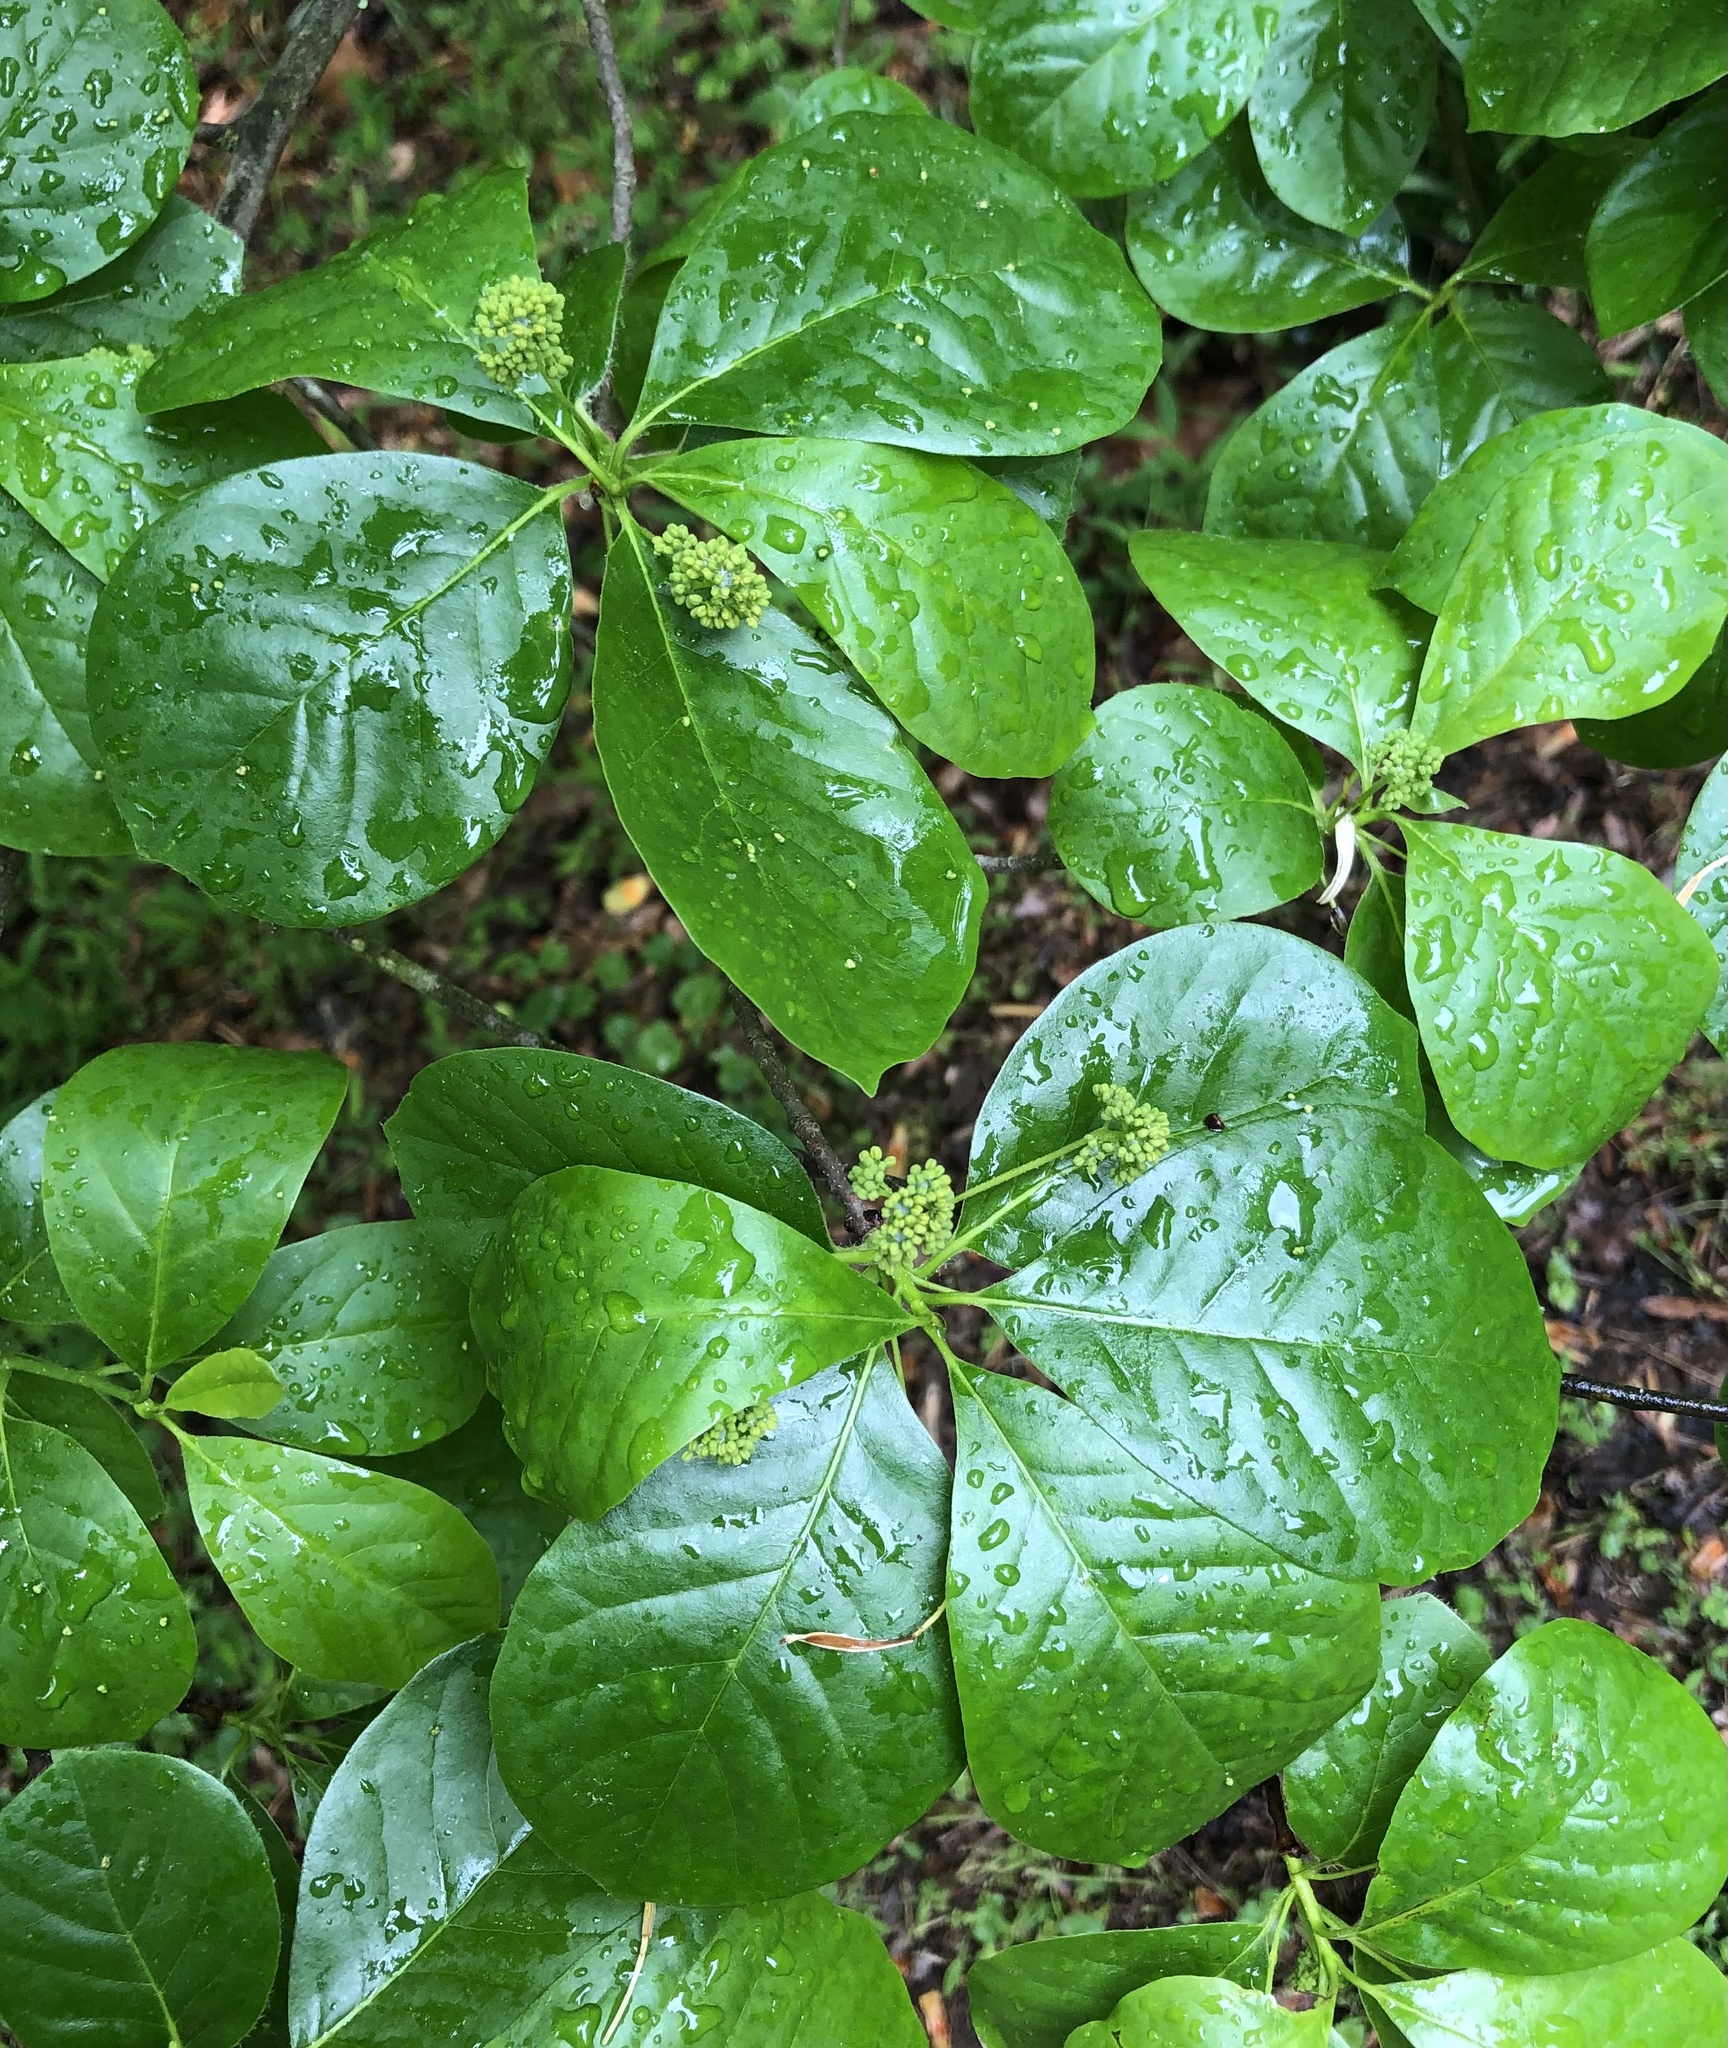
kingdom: Plantae
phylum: Tracheophyta
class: Magnoliopsida
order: Cornales
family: Nyssaceae
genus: Nyssa
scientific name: Nyssa sylvatica
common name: Black tupelo
